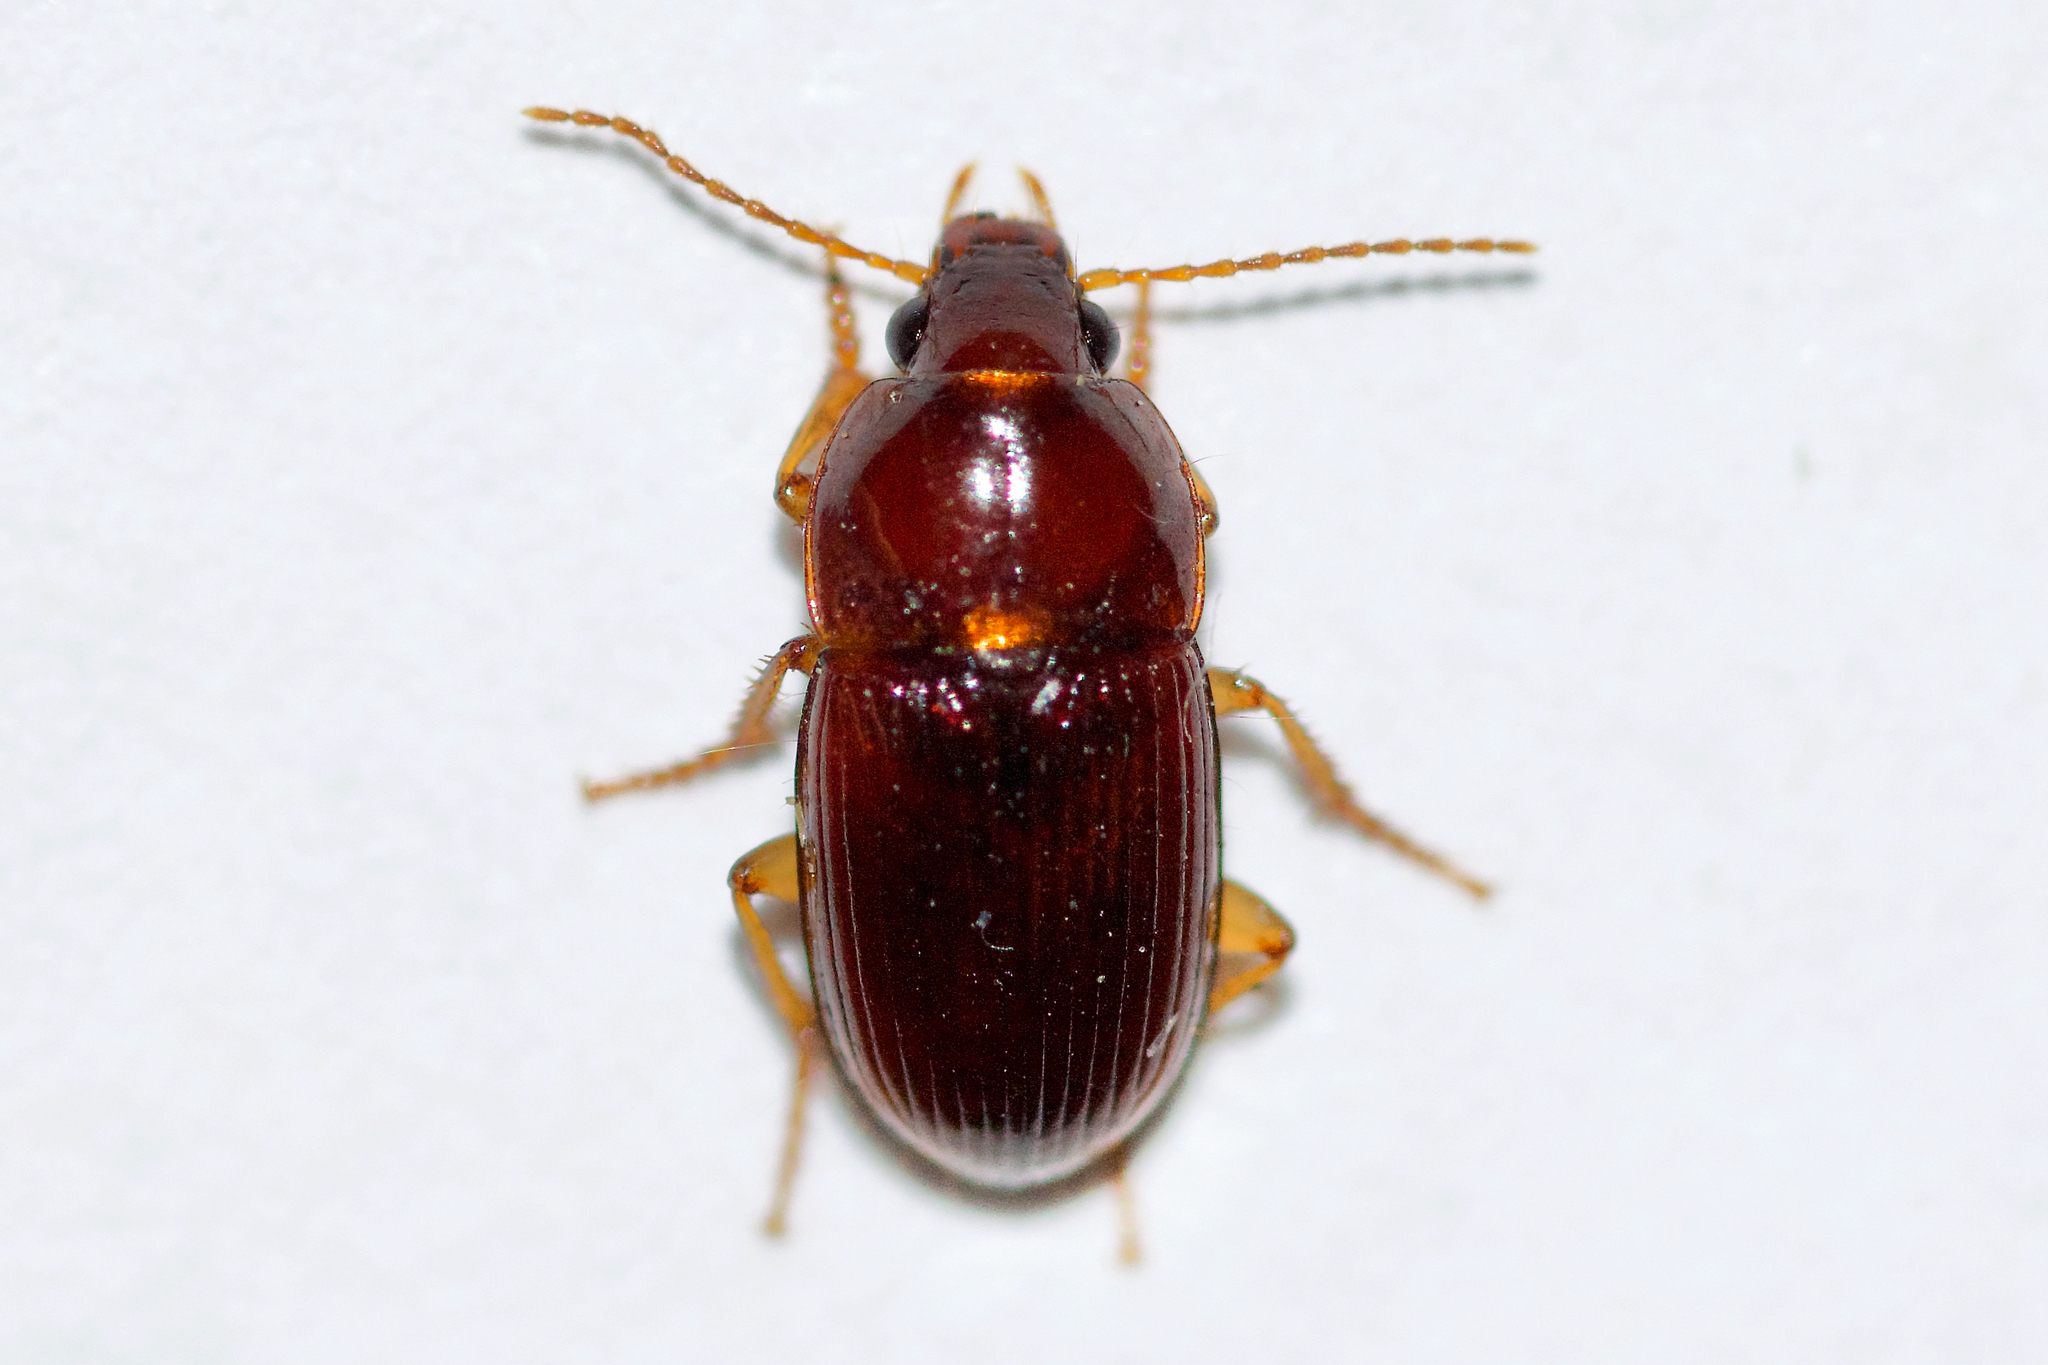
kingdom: Animalia
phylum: Arthropoda
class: Insecta
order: Coleoptera
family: Carabidae
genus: Amara
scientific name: Amara rubrica
